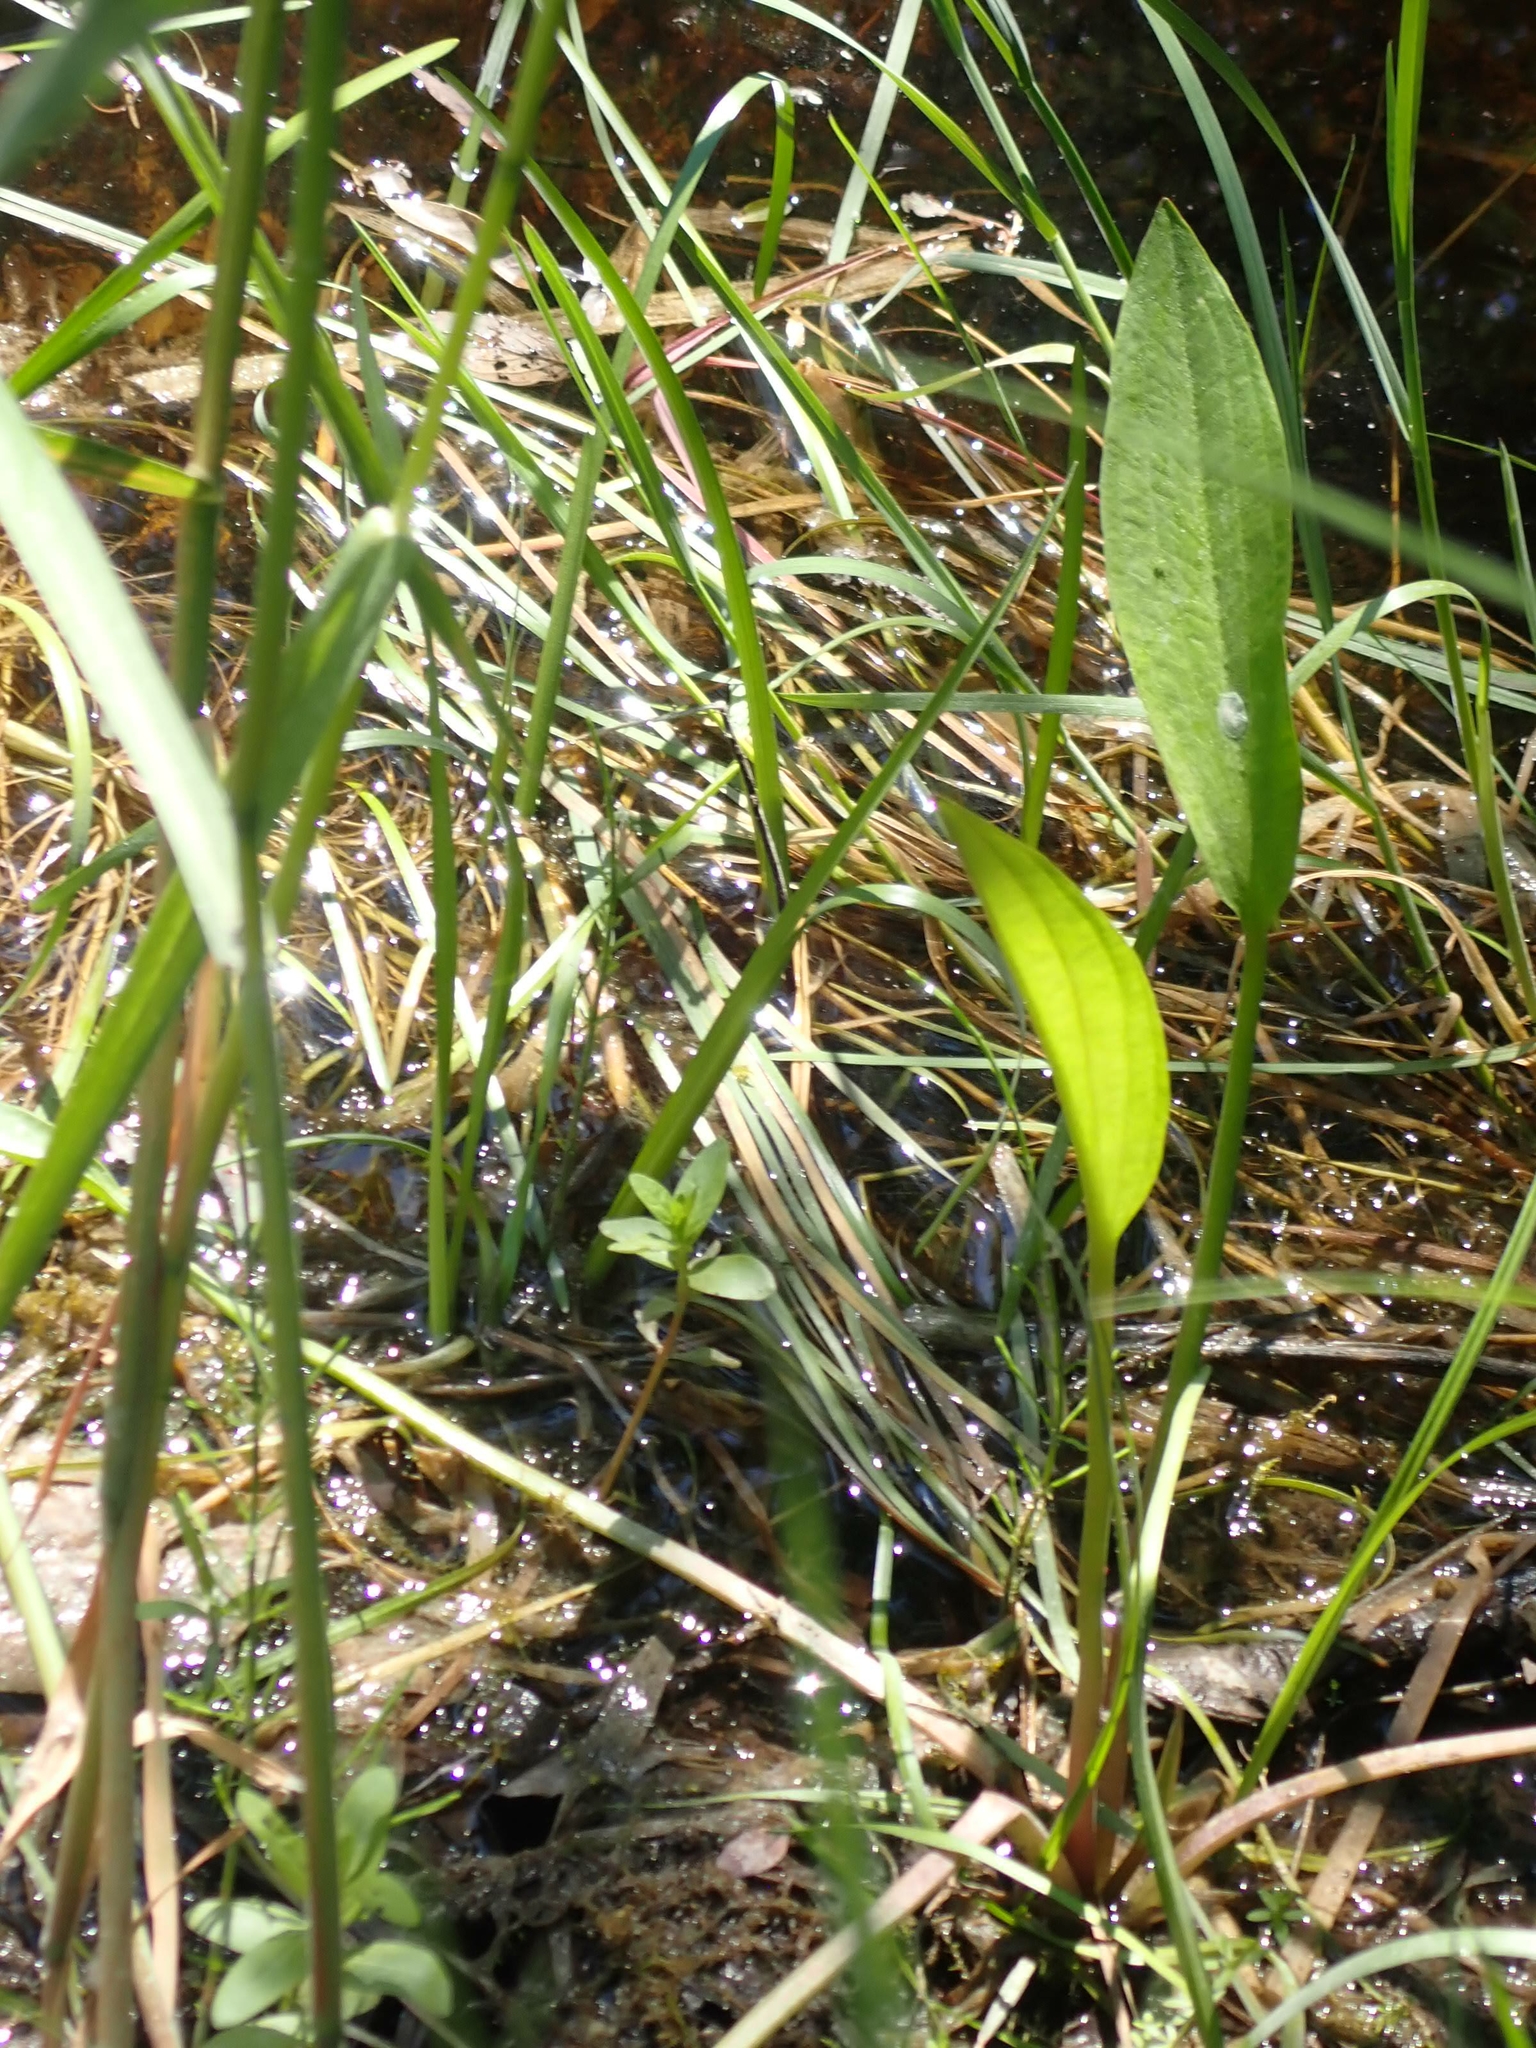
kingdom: Plantae
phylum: Tracheophyta
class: Liliopsida
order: Alismatales
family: Alismataceae
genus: Alisma
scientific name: Alisma triviale
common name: Northern water-plantain
